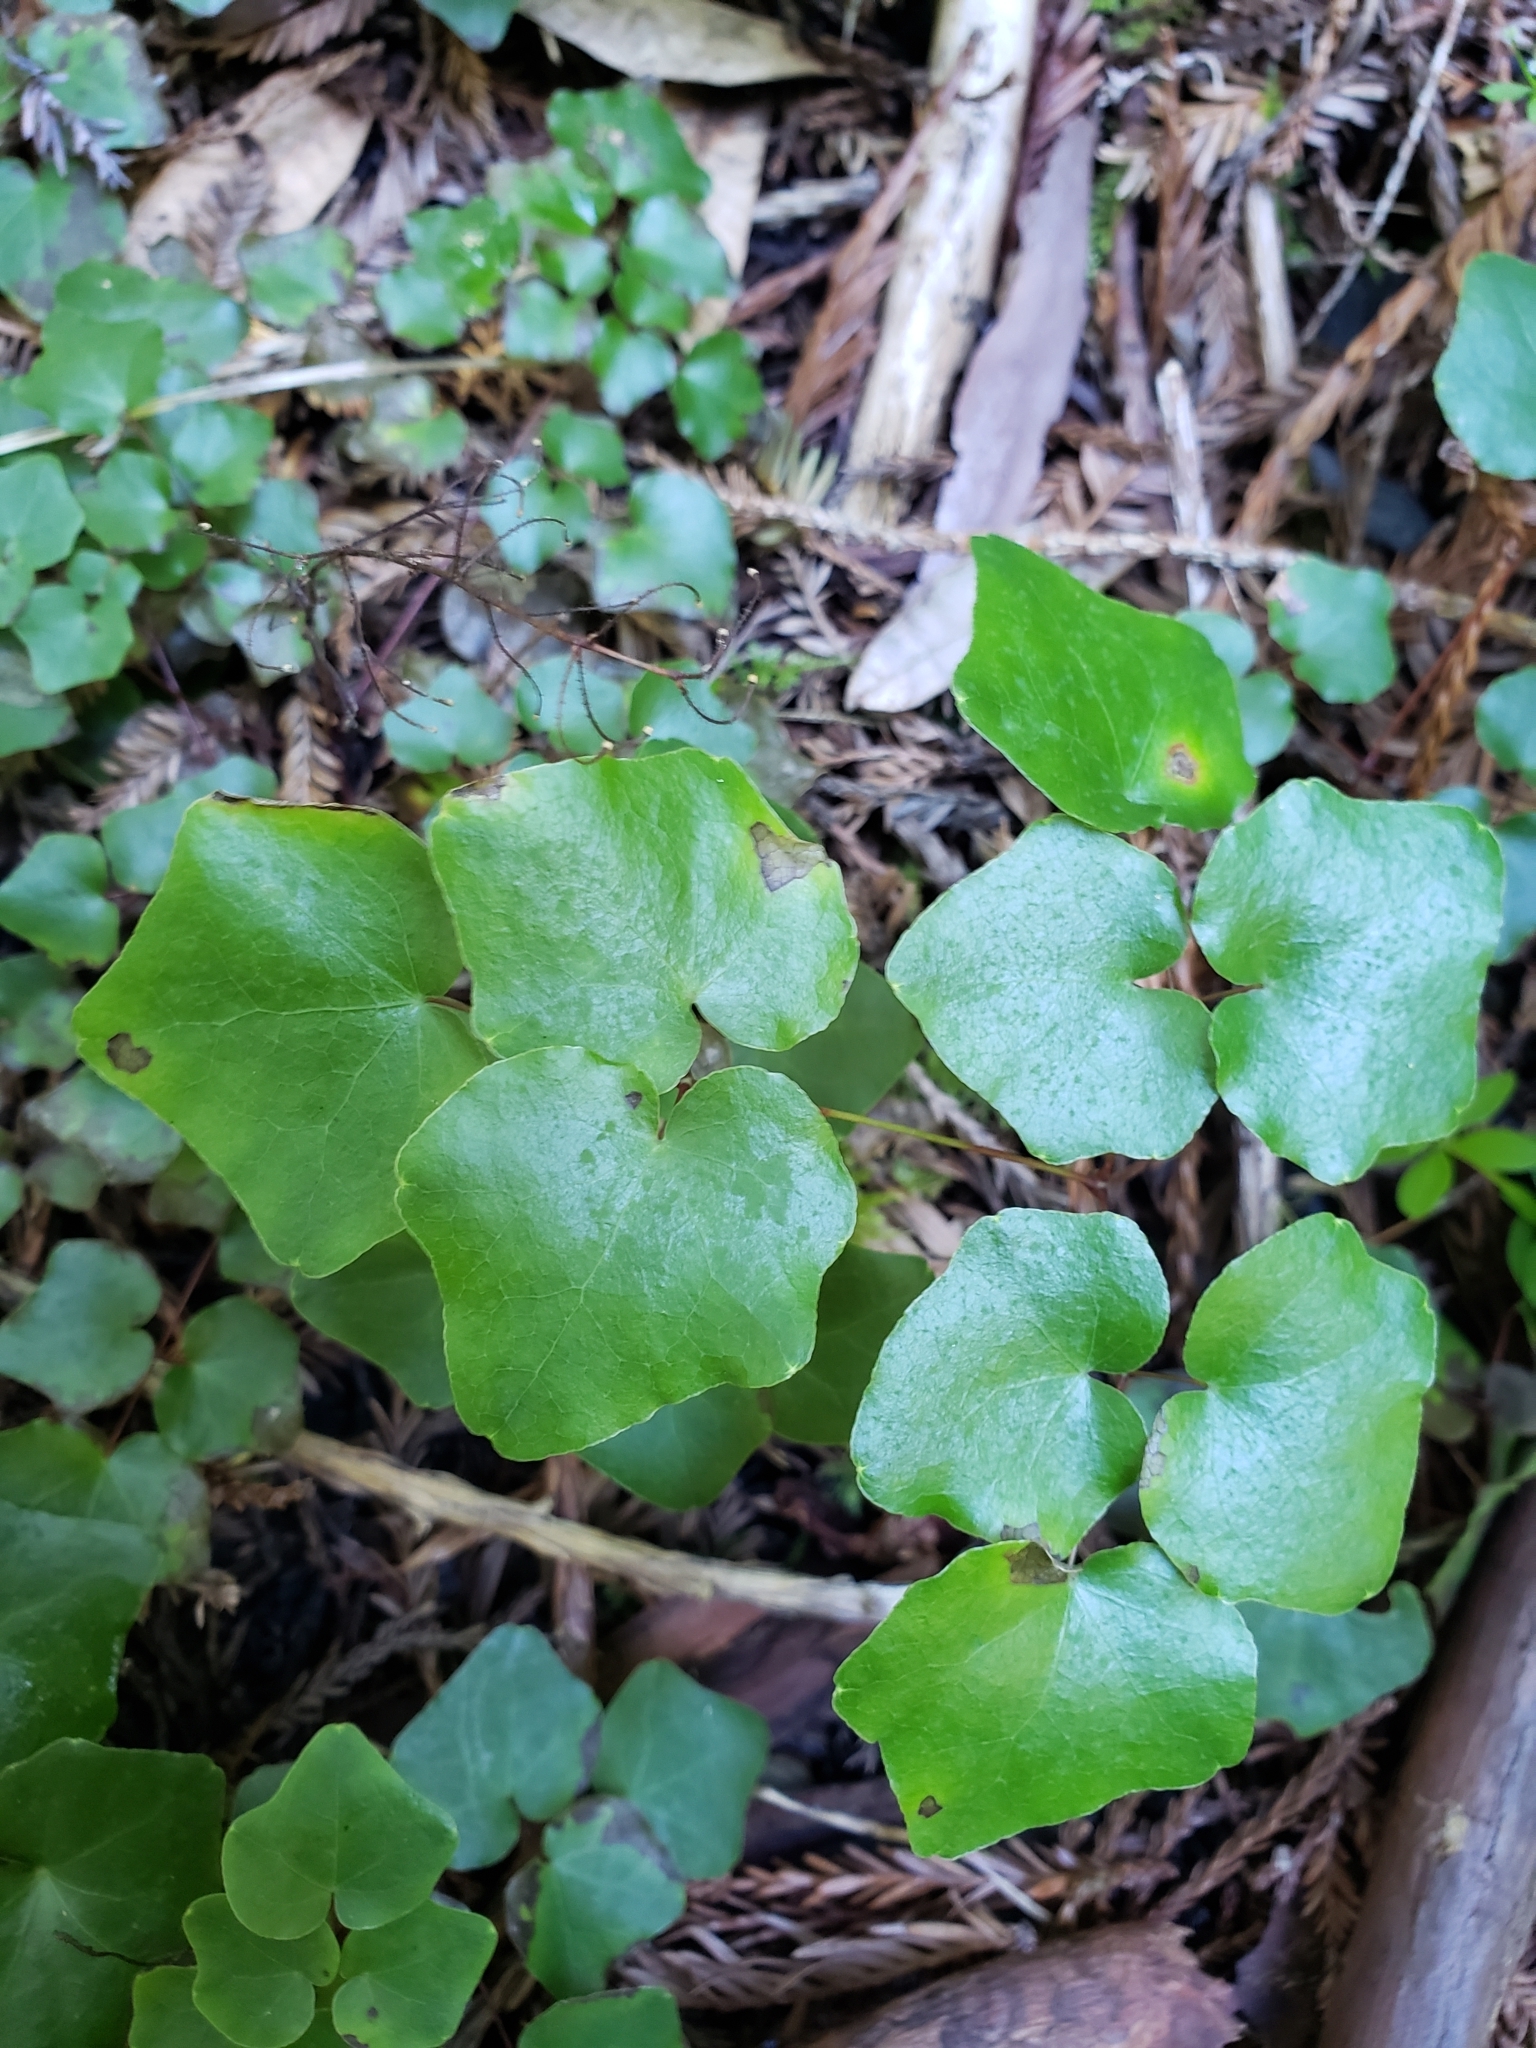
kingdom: Plantae
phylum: Tracheophyta
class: Magnoliopsida
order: Ranunculales
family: Berberidaceae
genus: Vancouveria
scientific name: Vancouveria planipetala
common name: Redwood-ivy
